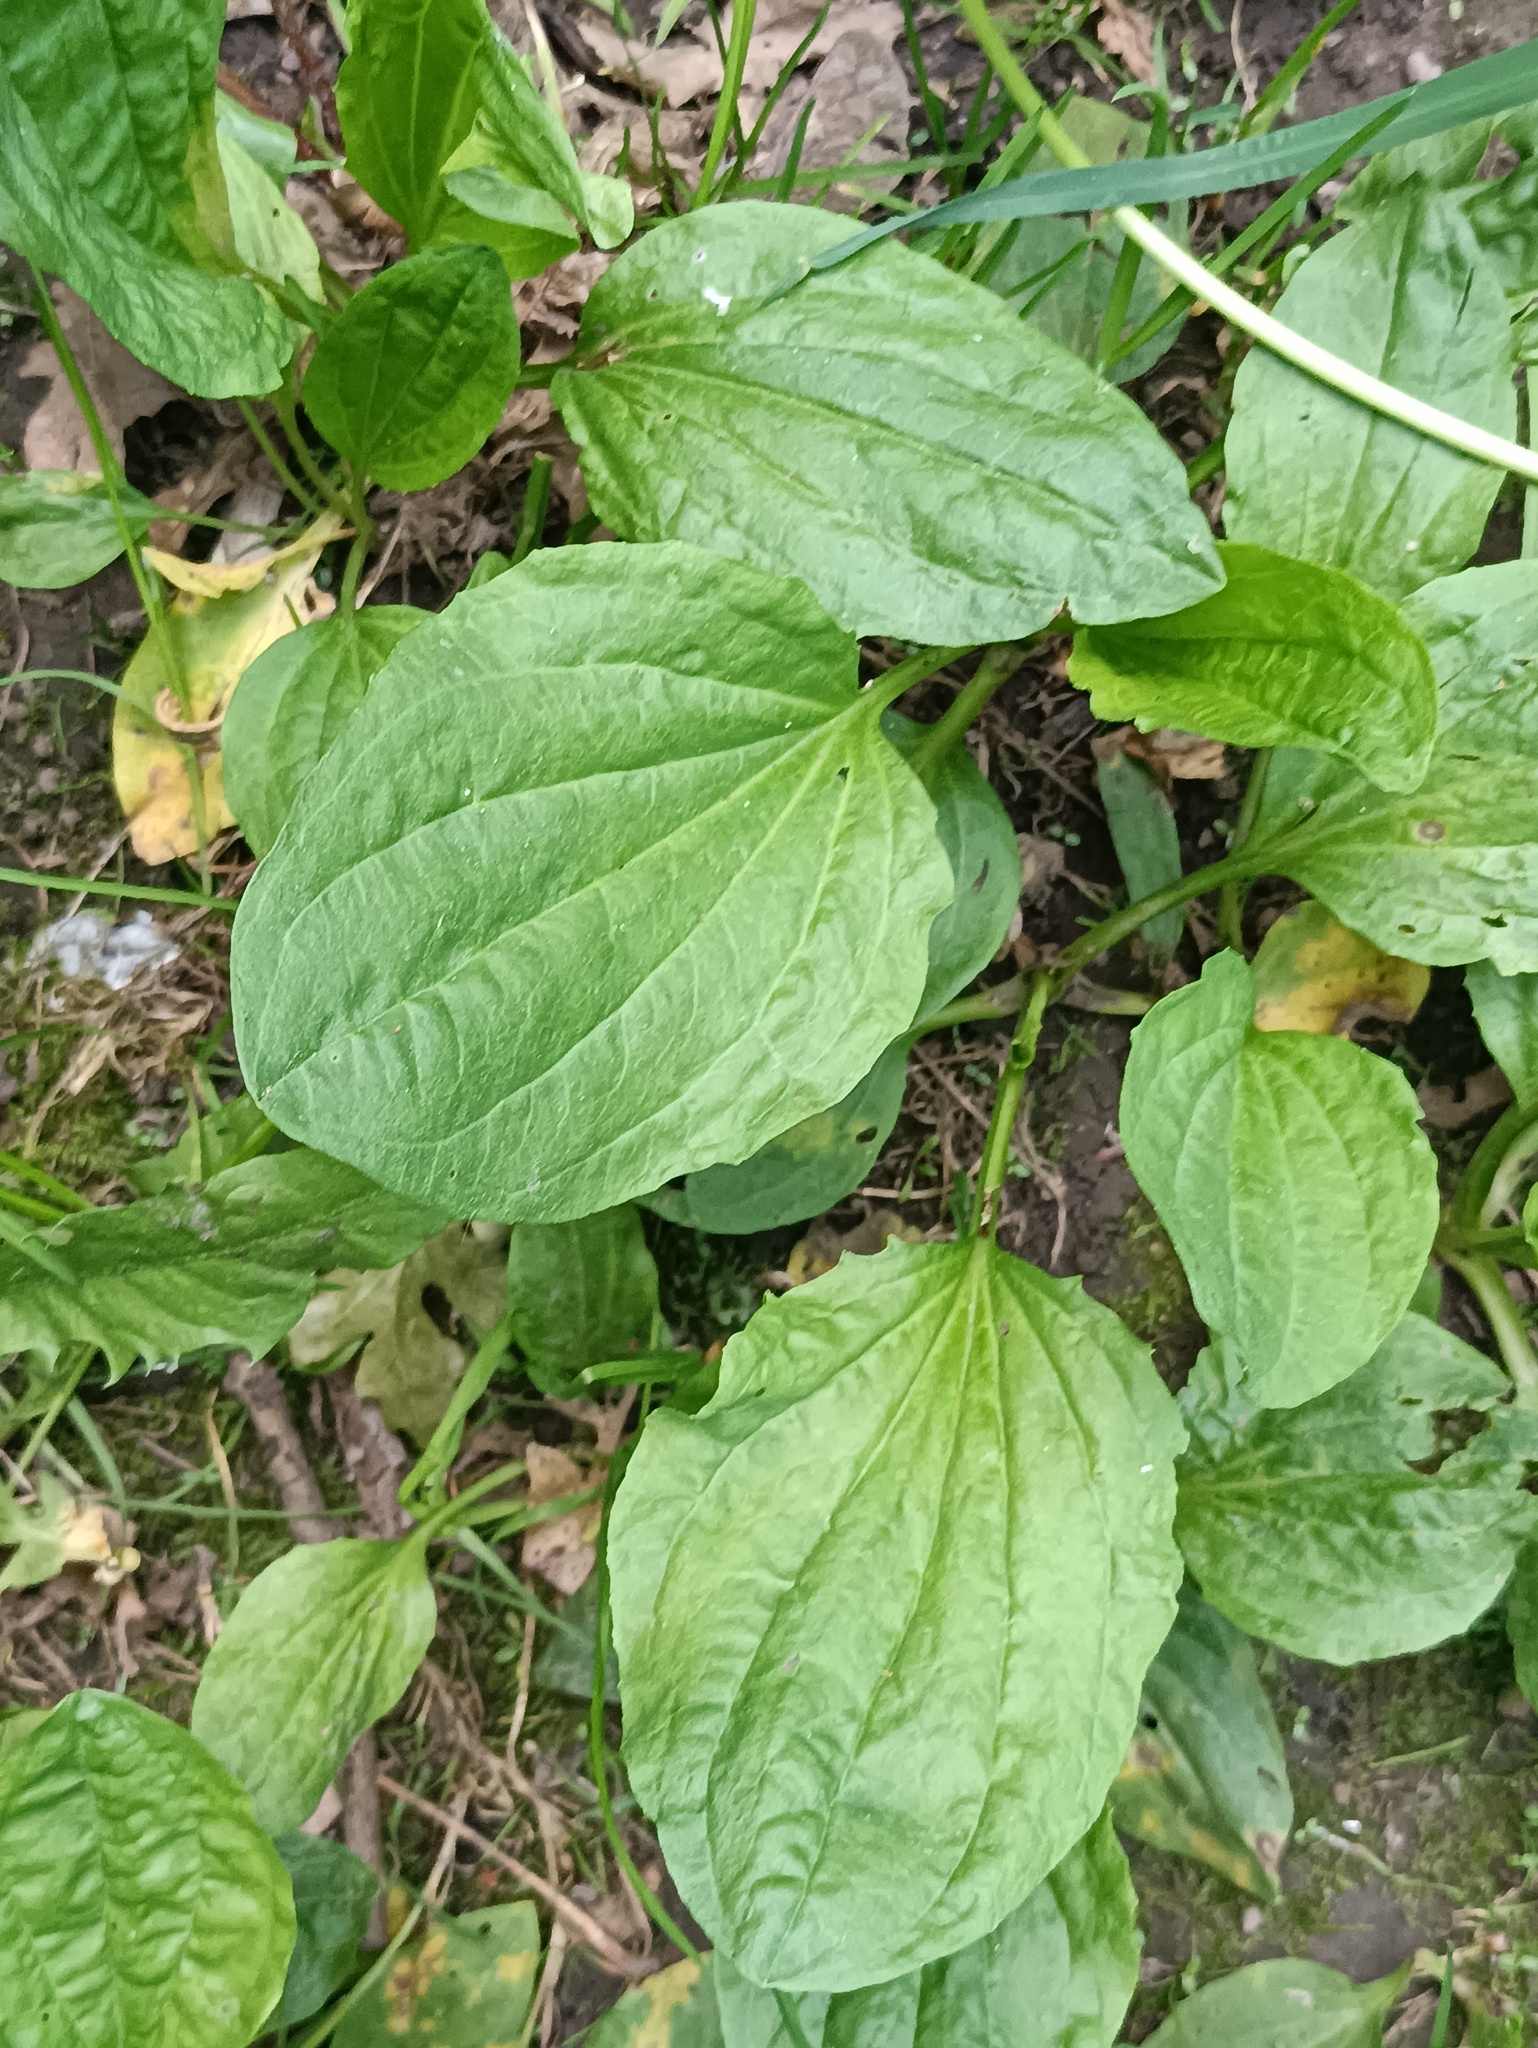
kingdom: Plantae
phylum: Tracheophyta
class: Magnoliopsida
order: Lamiales
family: Plantaginaceae
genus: Plantago
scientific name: Plantago major
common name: Common plantain
